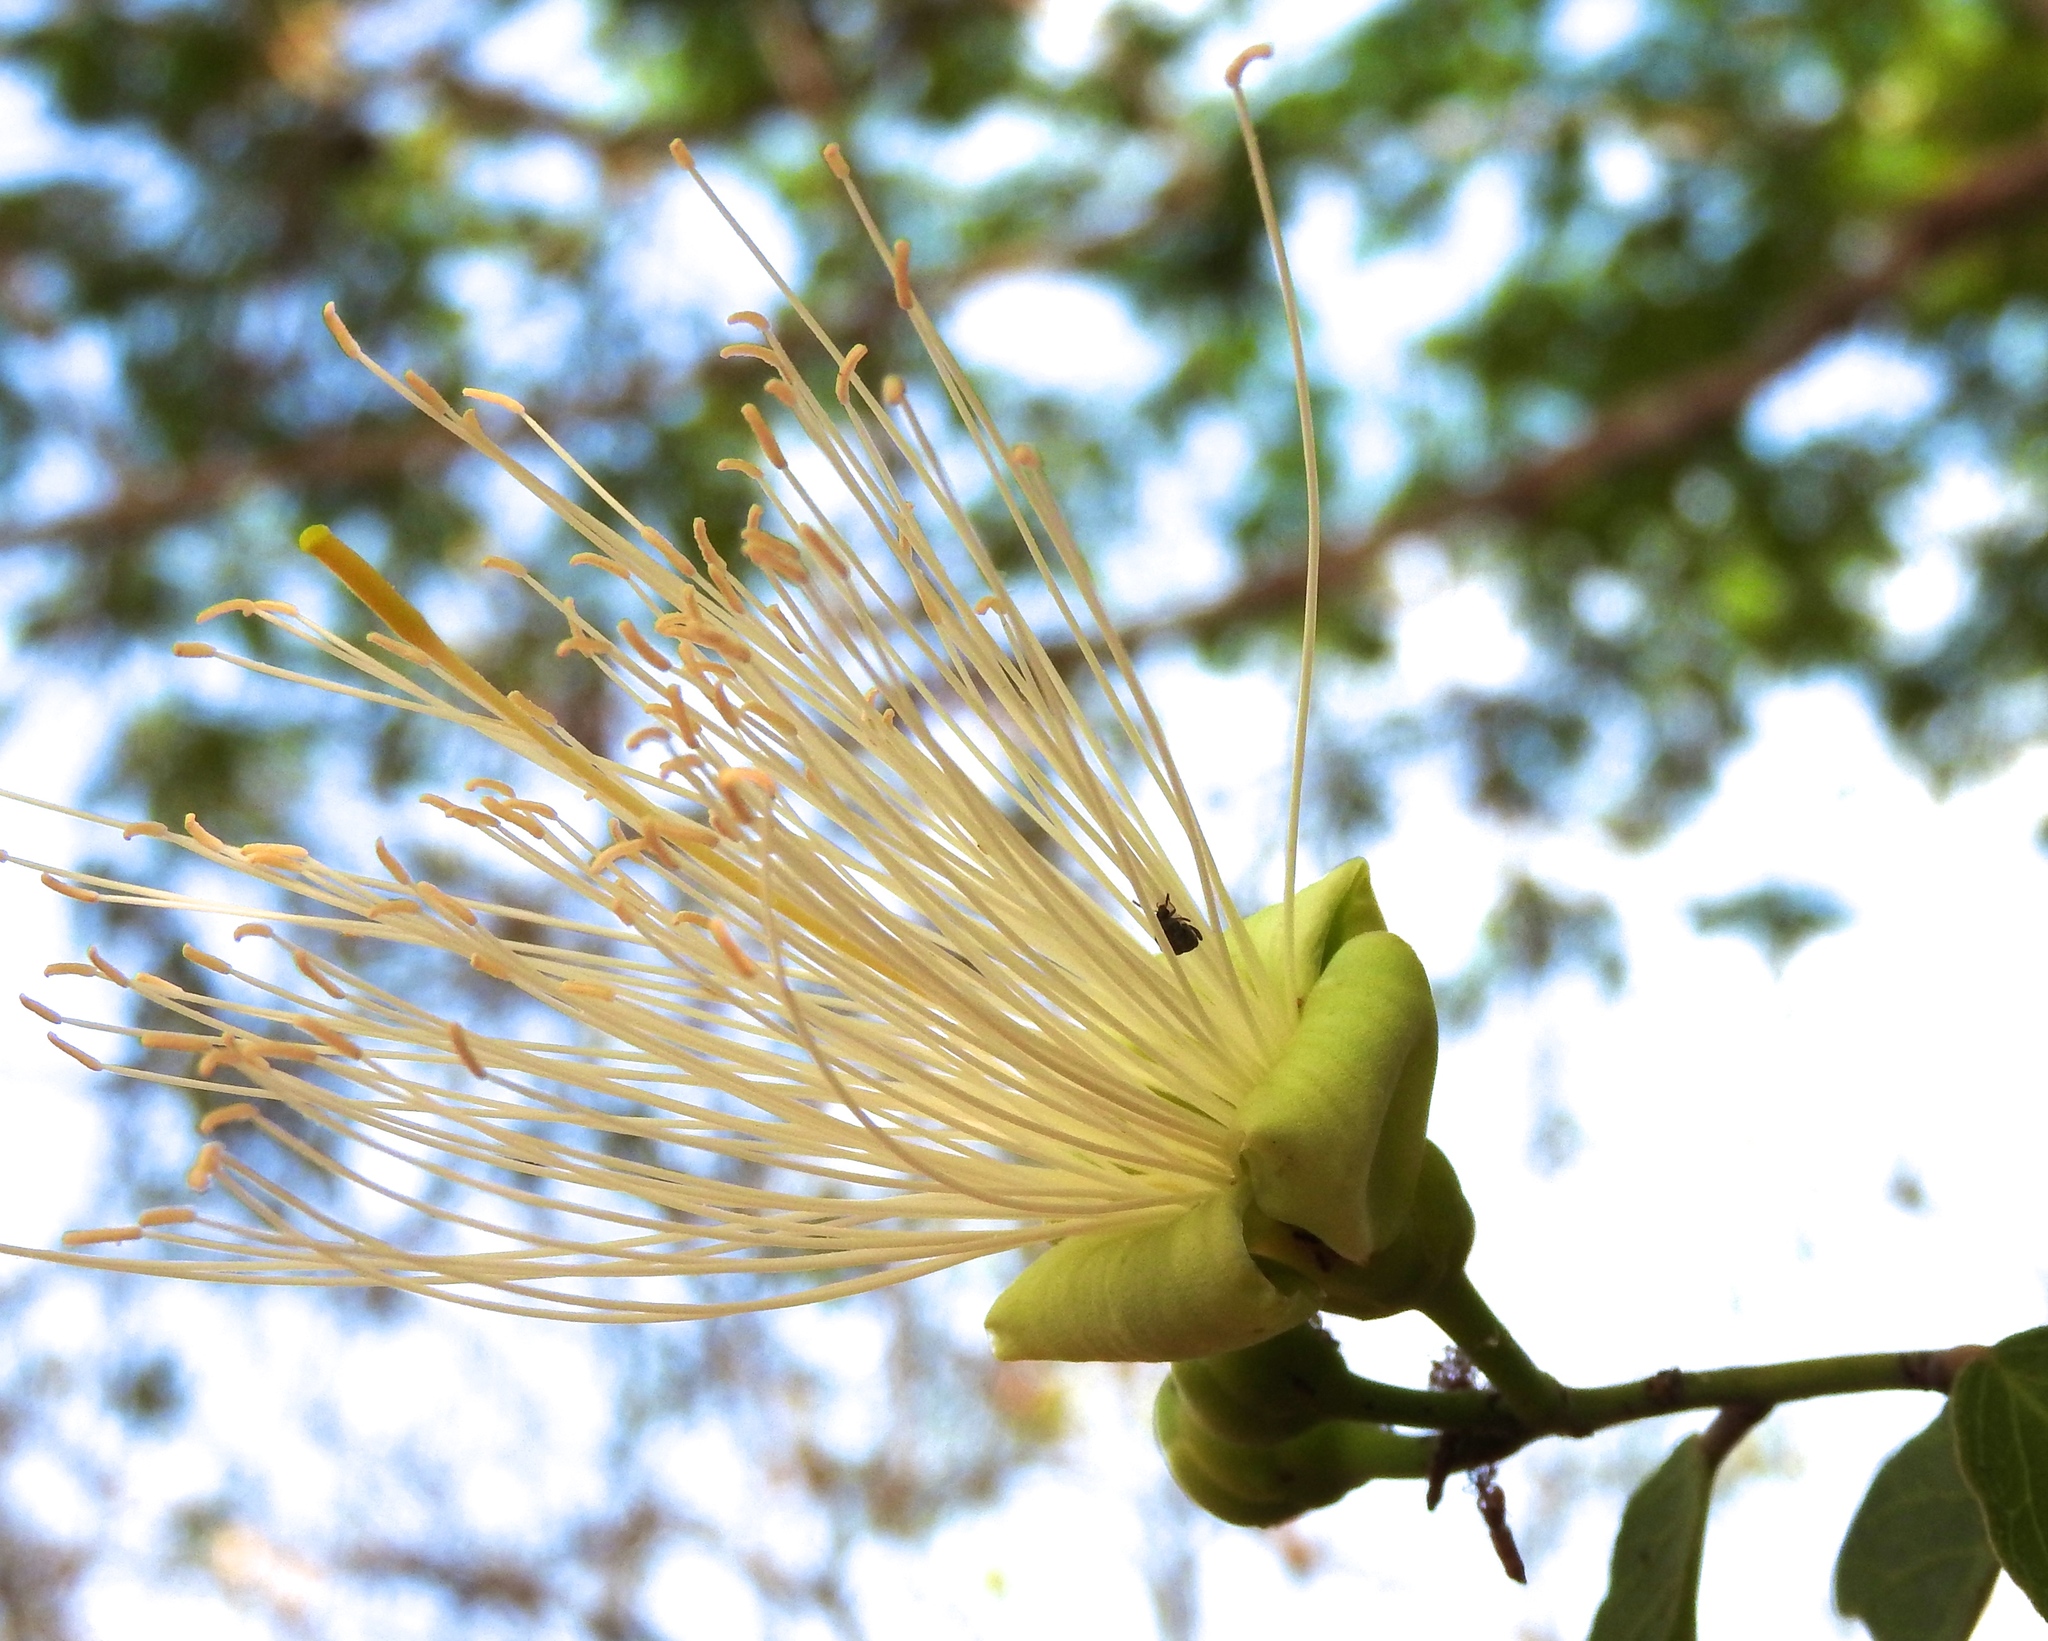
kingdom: Plantae
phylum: Tracheophyta
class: Magnoliopsida
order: Brassicales
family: Capparaceae
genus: Cynophalla
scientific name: Cynophalla flexuosa
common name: Capertree
